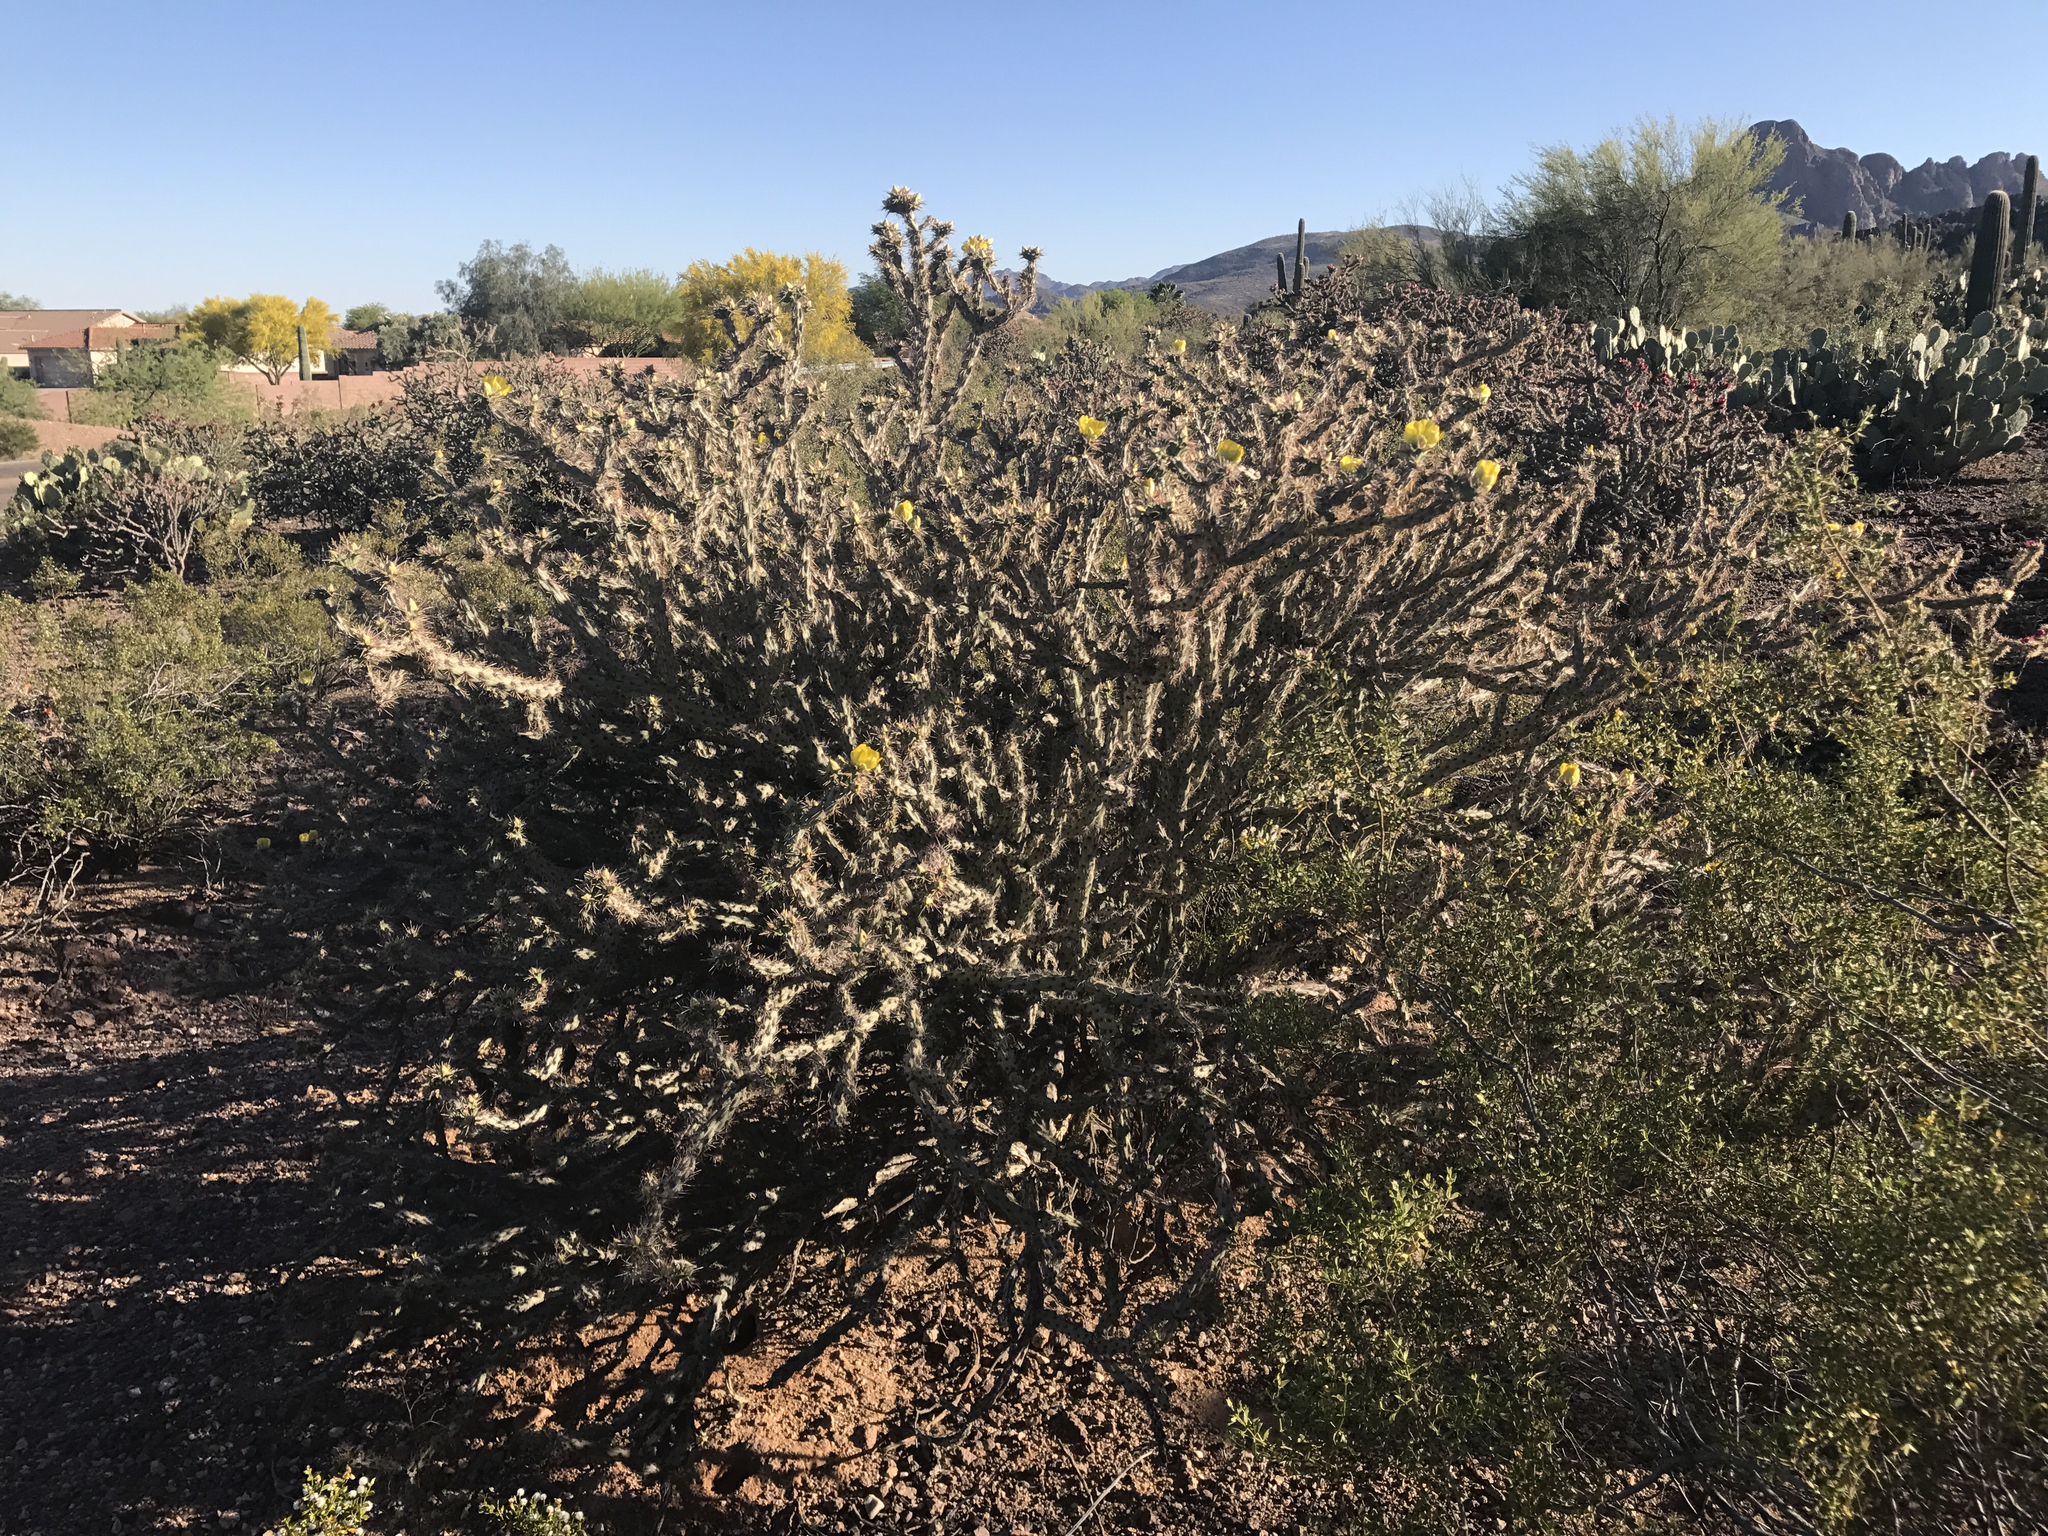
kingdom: Plantae
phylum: Tracheophyta
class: Magnoliopsida
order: Caryophyllales
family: Cactaceae
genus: Cylindropuntia
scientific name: Cylindropuntia thurberi
